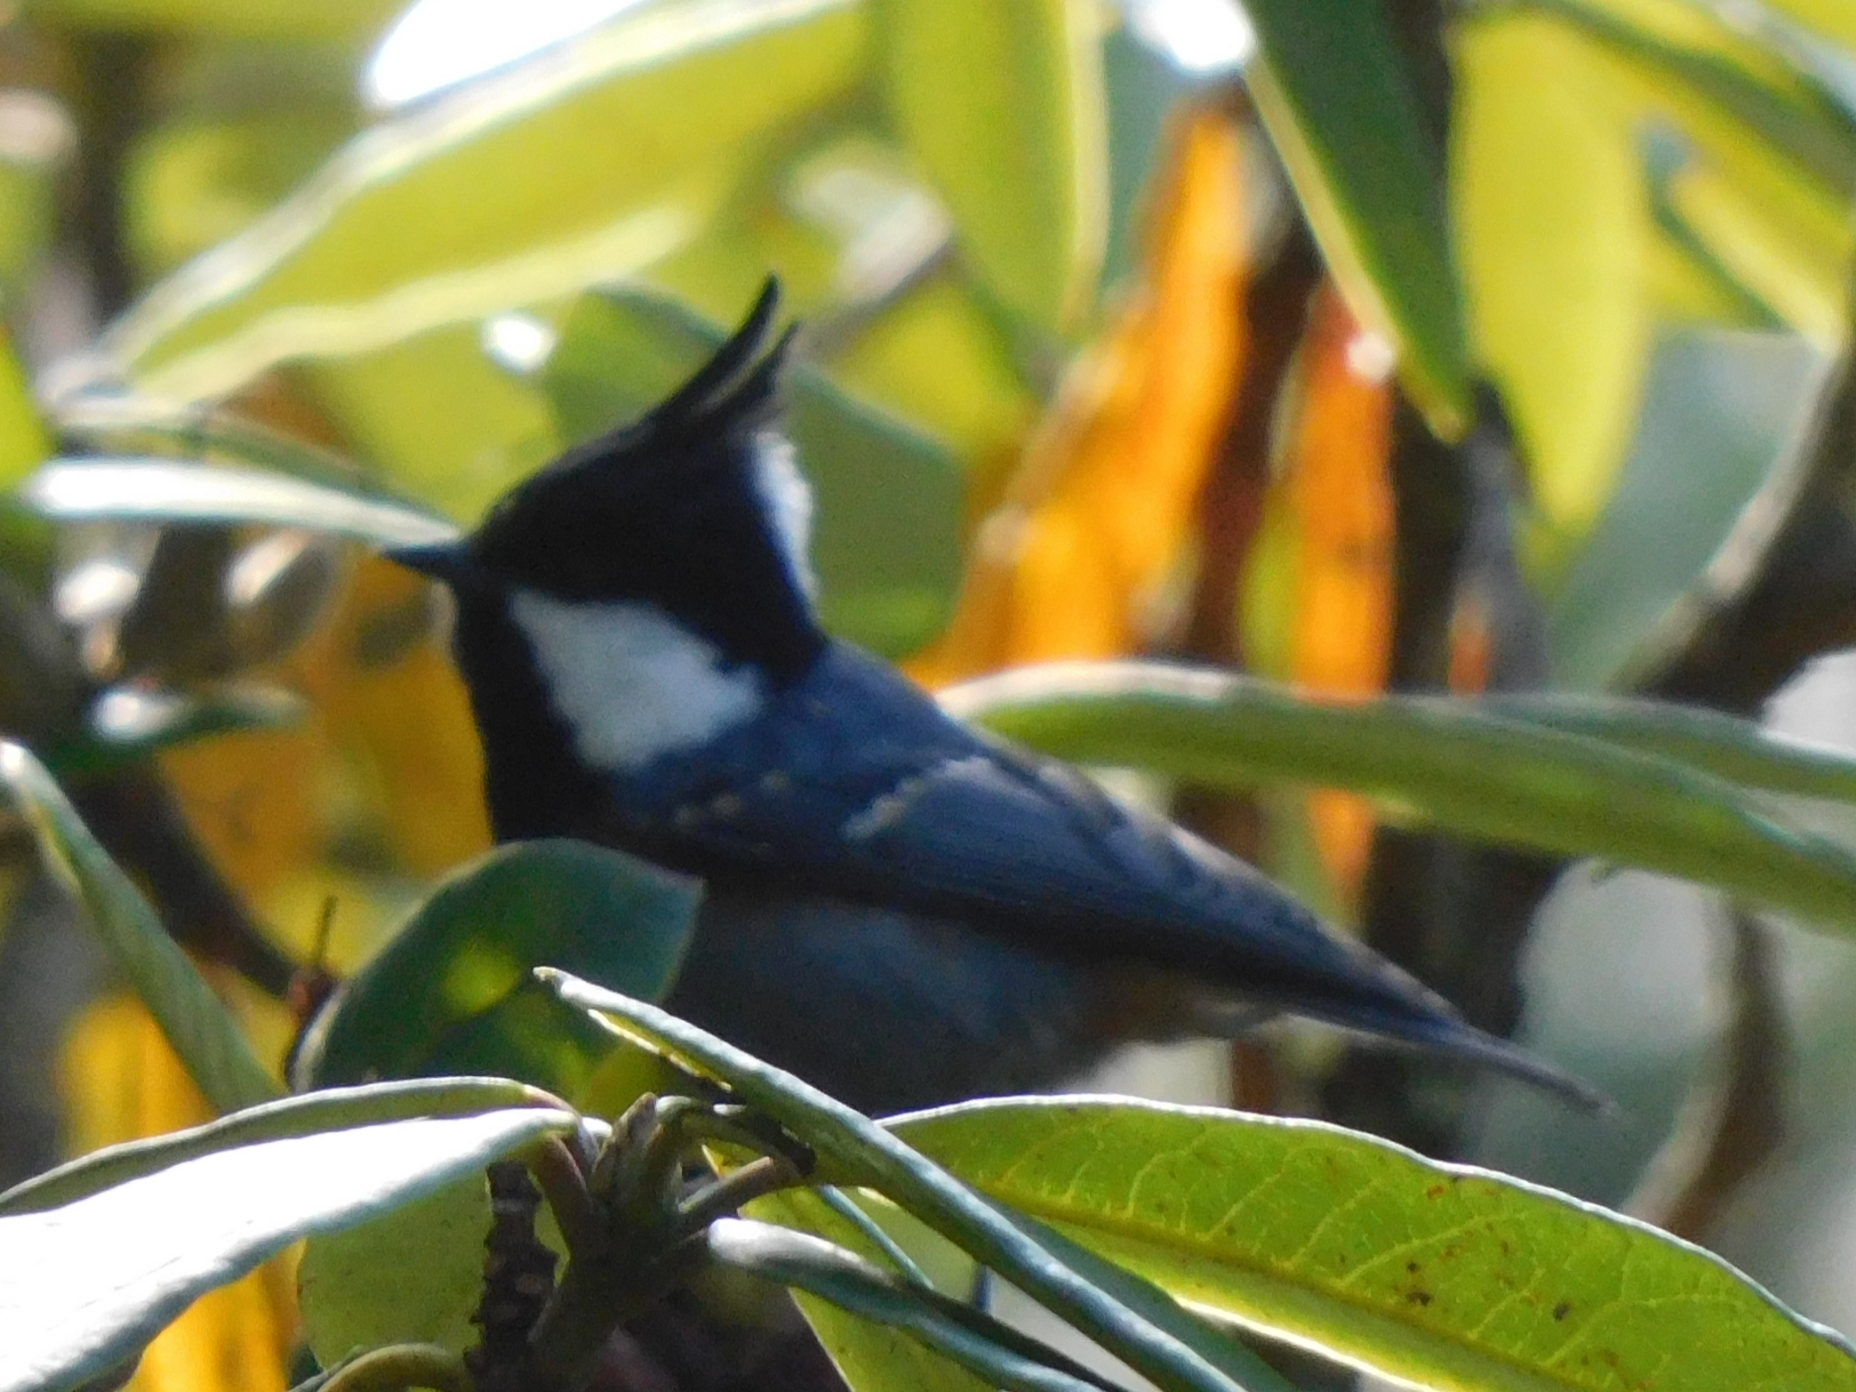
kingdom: Animalia
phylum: Chordata
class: Aves
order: Passeriformes
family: Paridae
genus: Periparus
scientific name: Periparus ater
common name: Coal tit
